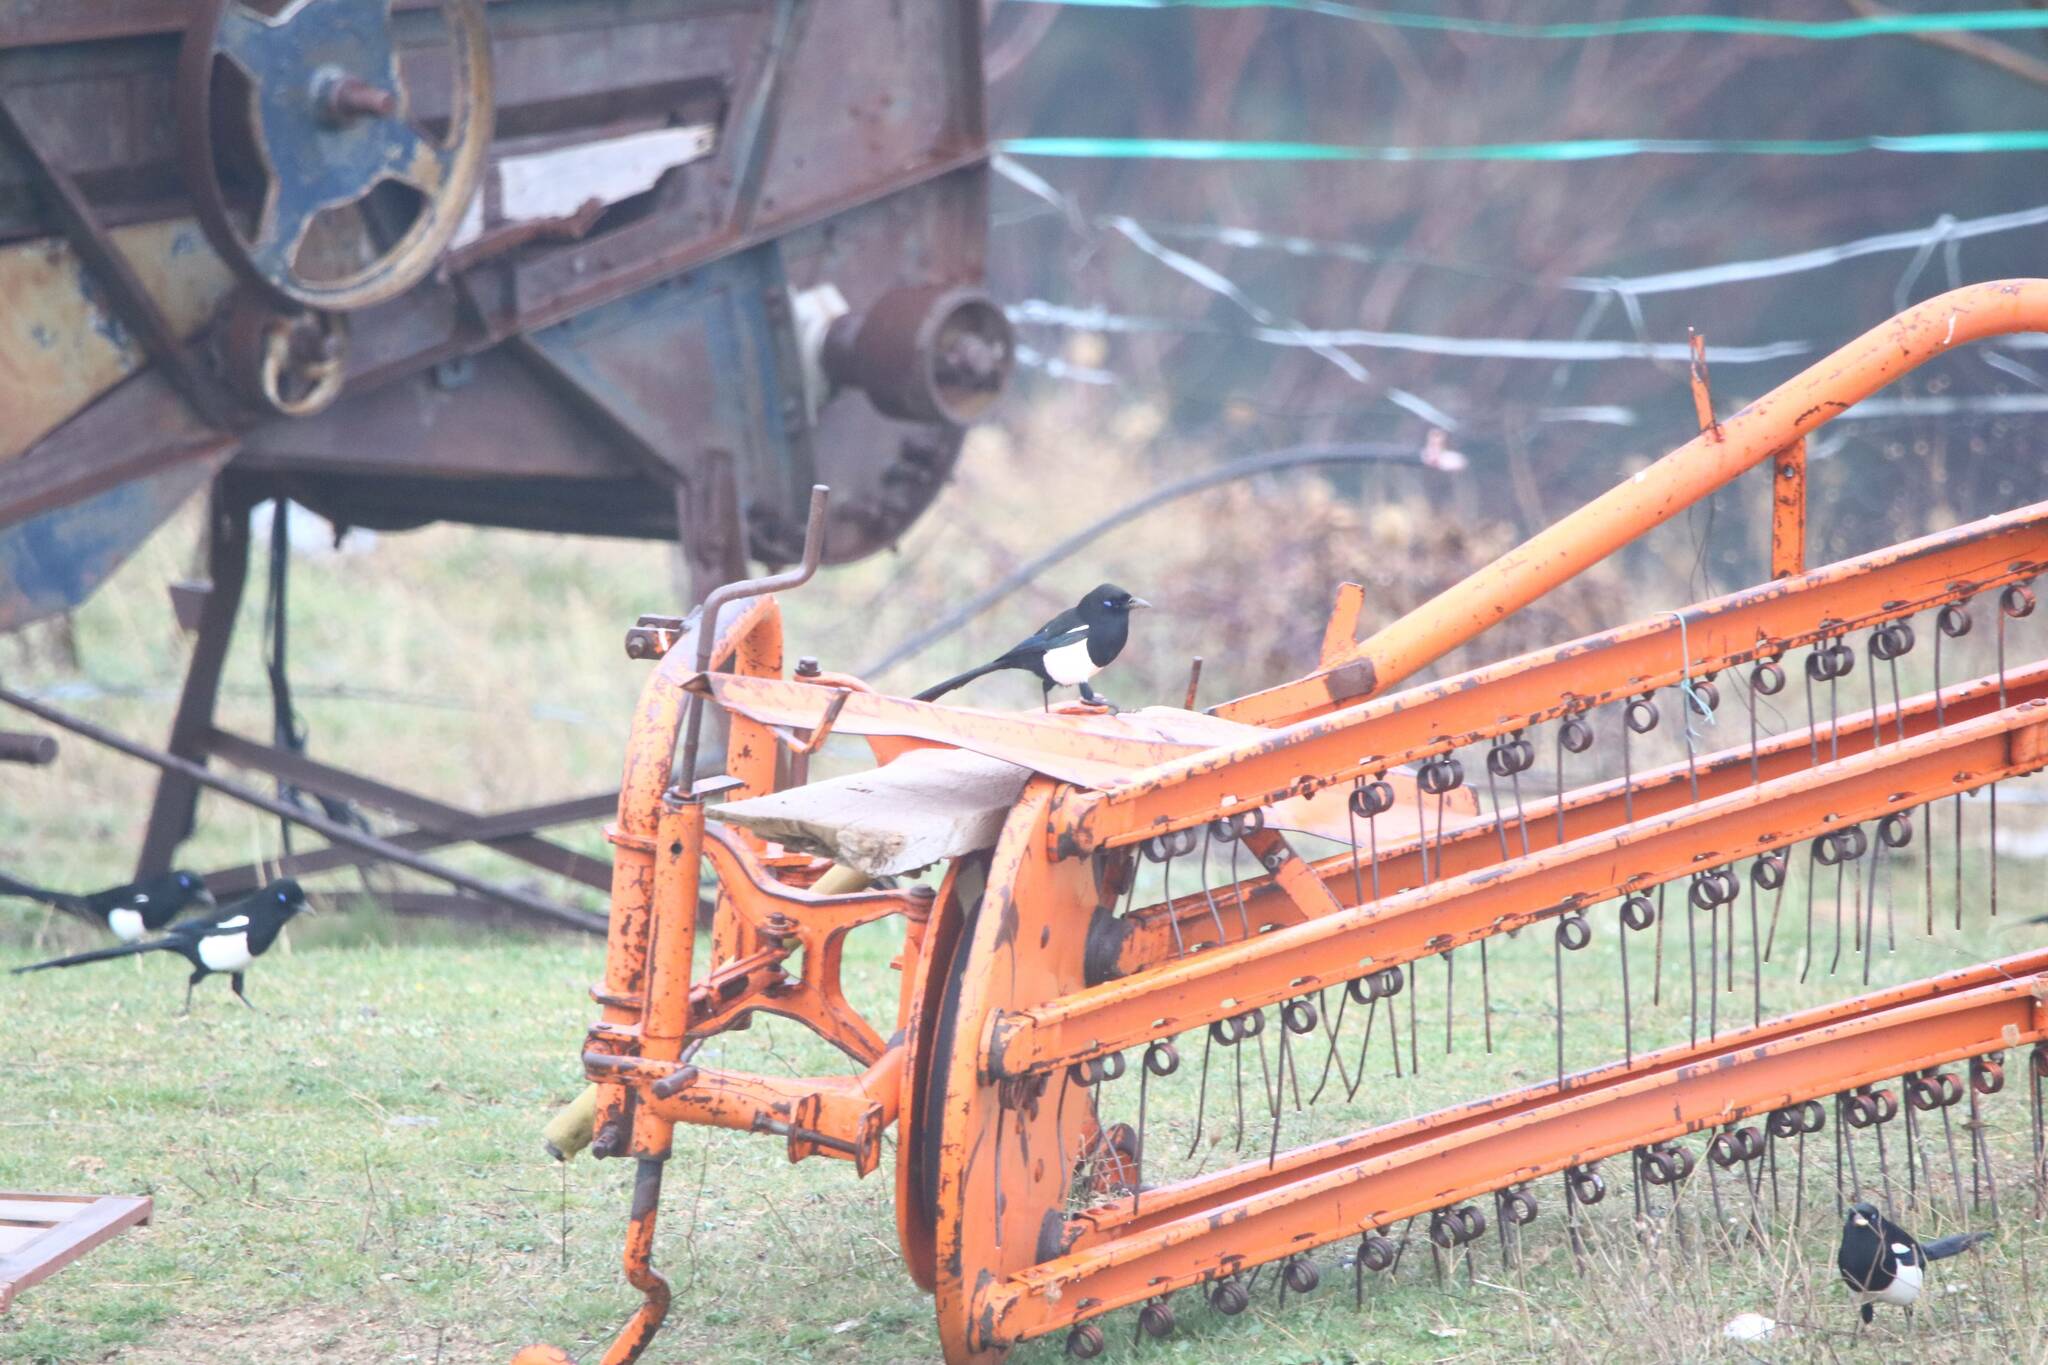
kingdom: Animalia
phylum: Chordata
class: Aves
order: Passeriformes
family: Corvidae
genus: Pica
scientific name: Pica mauritanica
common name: Maghreb magpie
